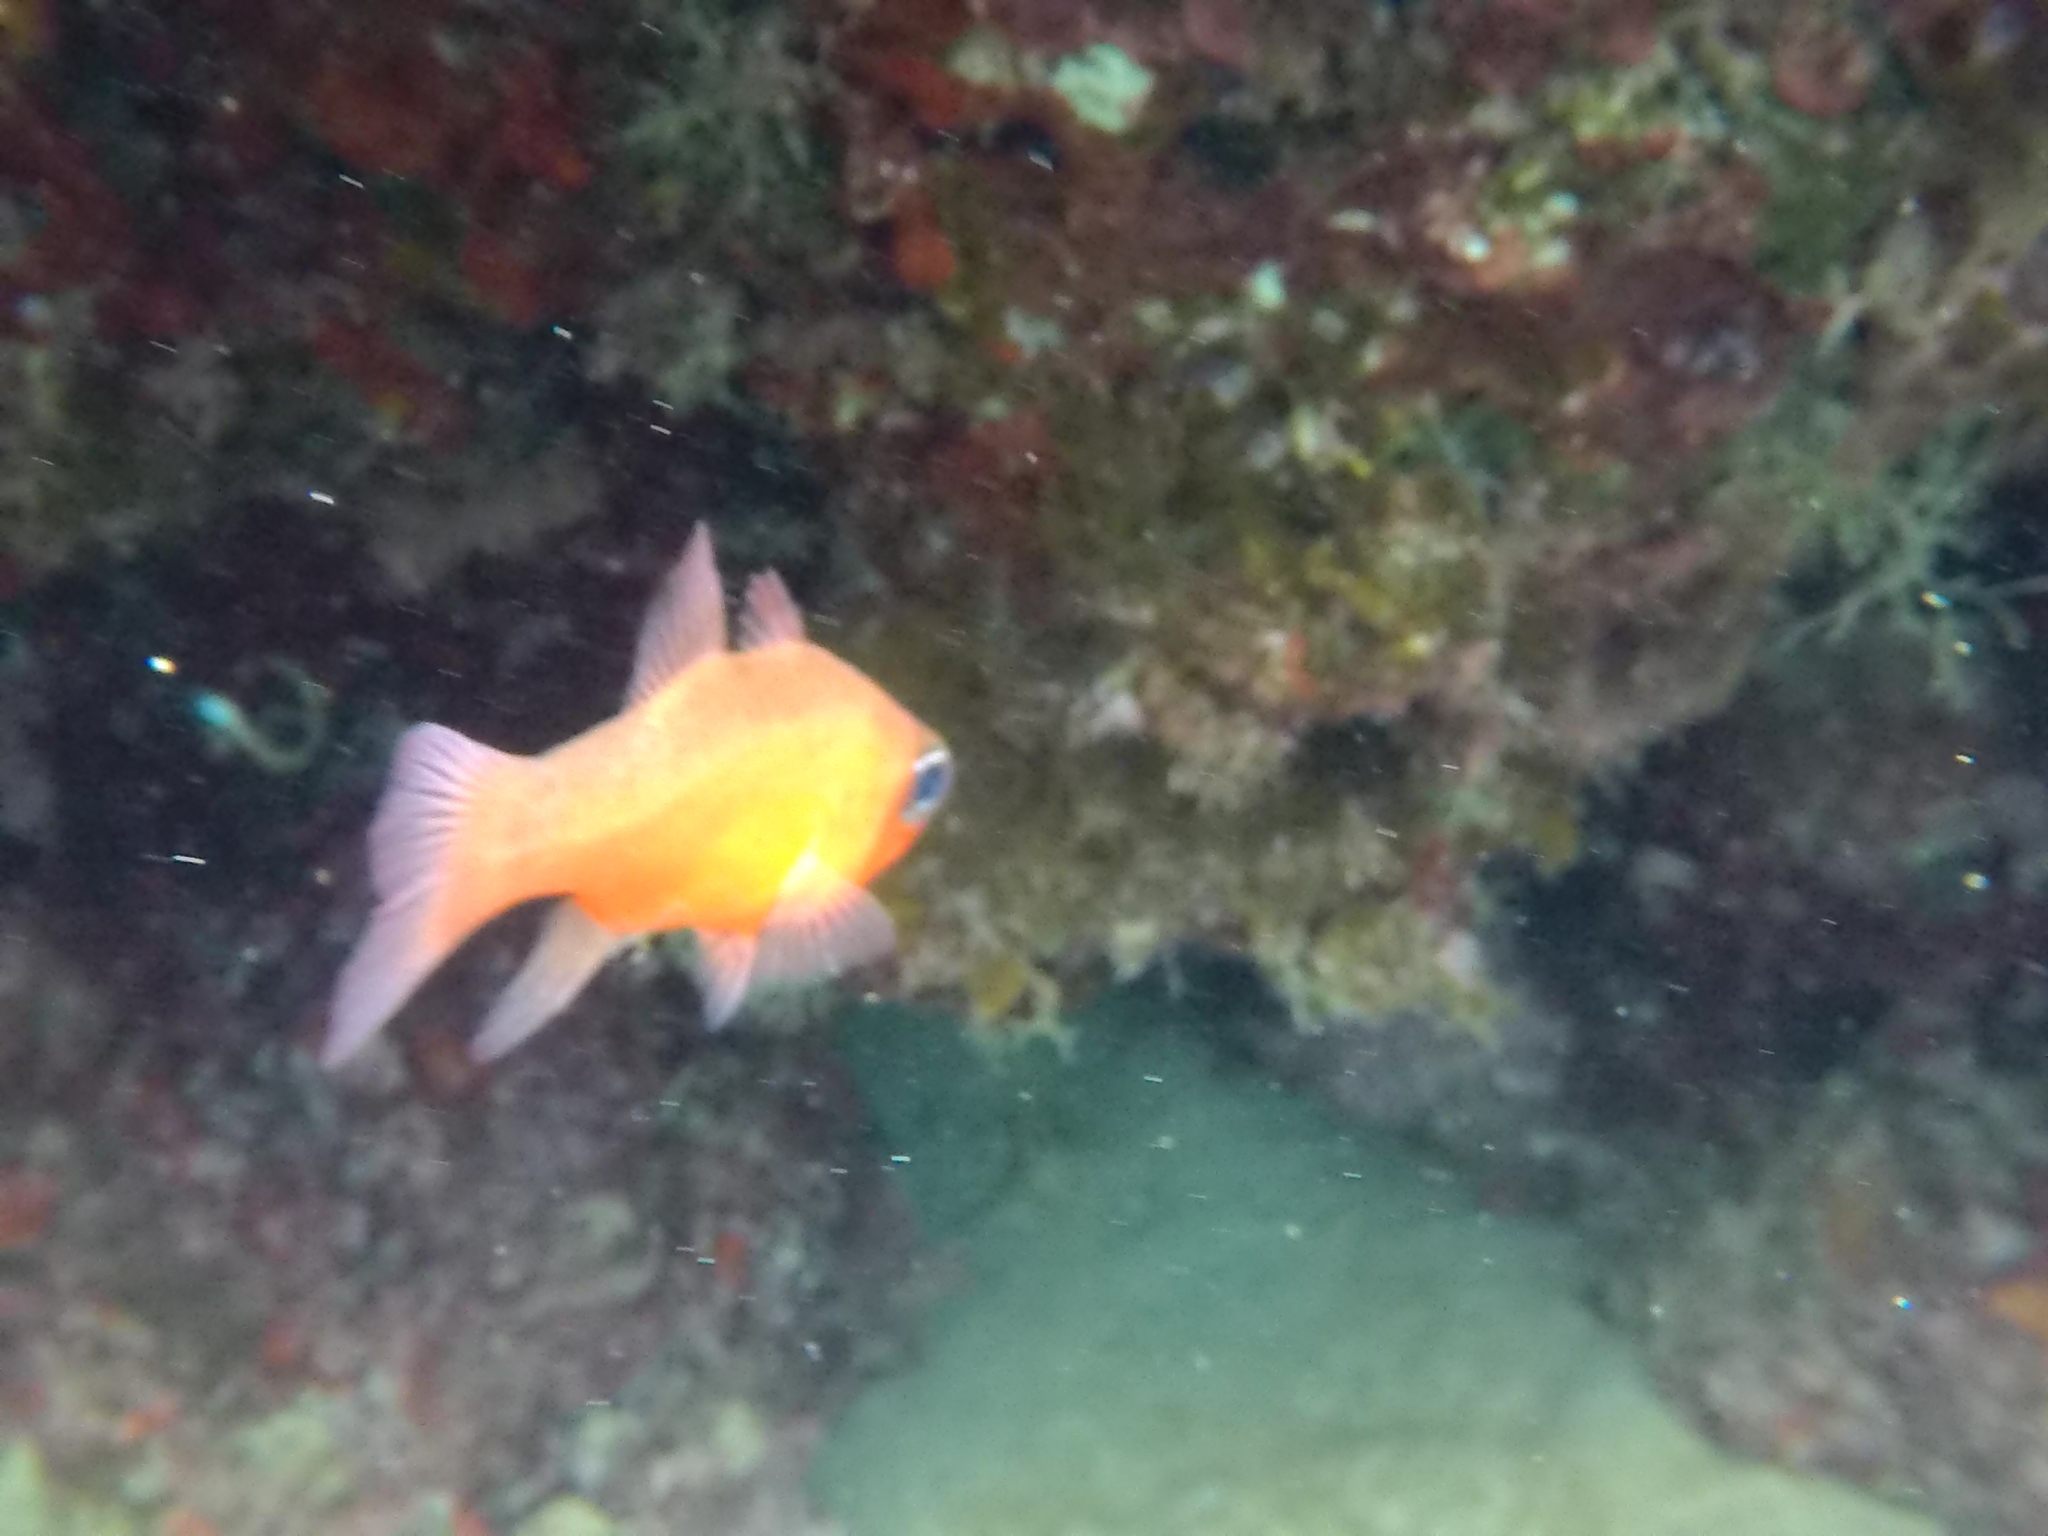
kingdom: Animalia
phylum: Chordata
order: Perciformes
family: Apogonidae
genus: Apogon
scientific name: Apogon imberbis
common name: Cardinal fish
